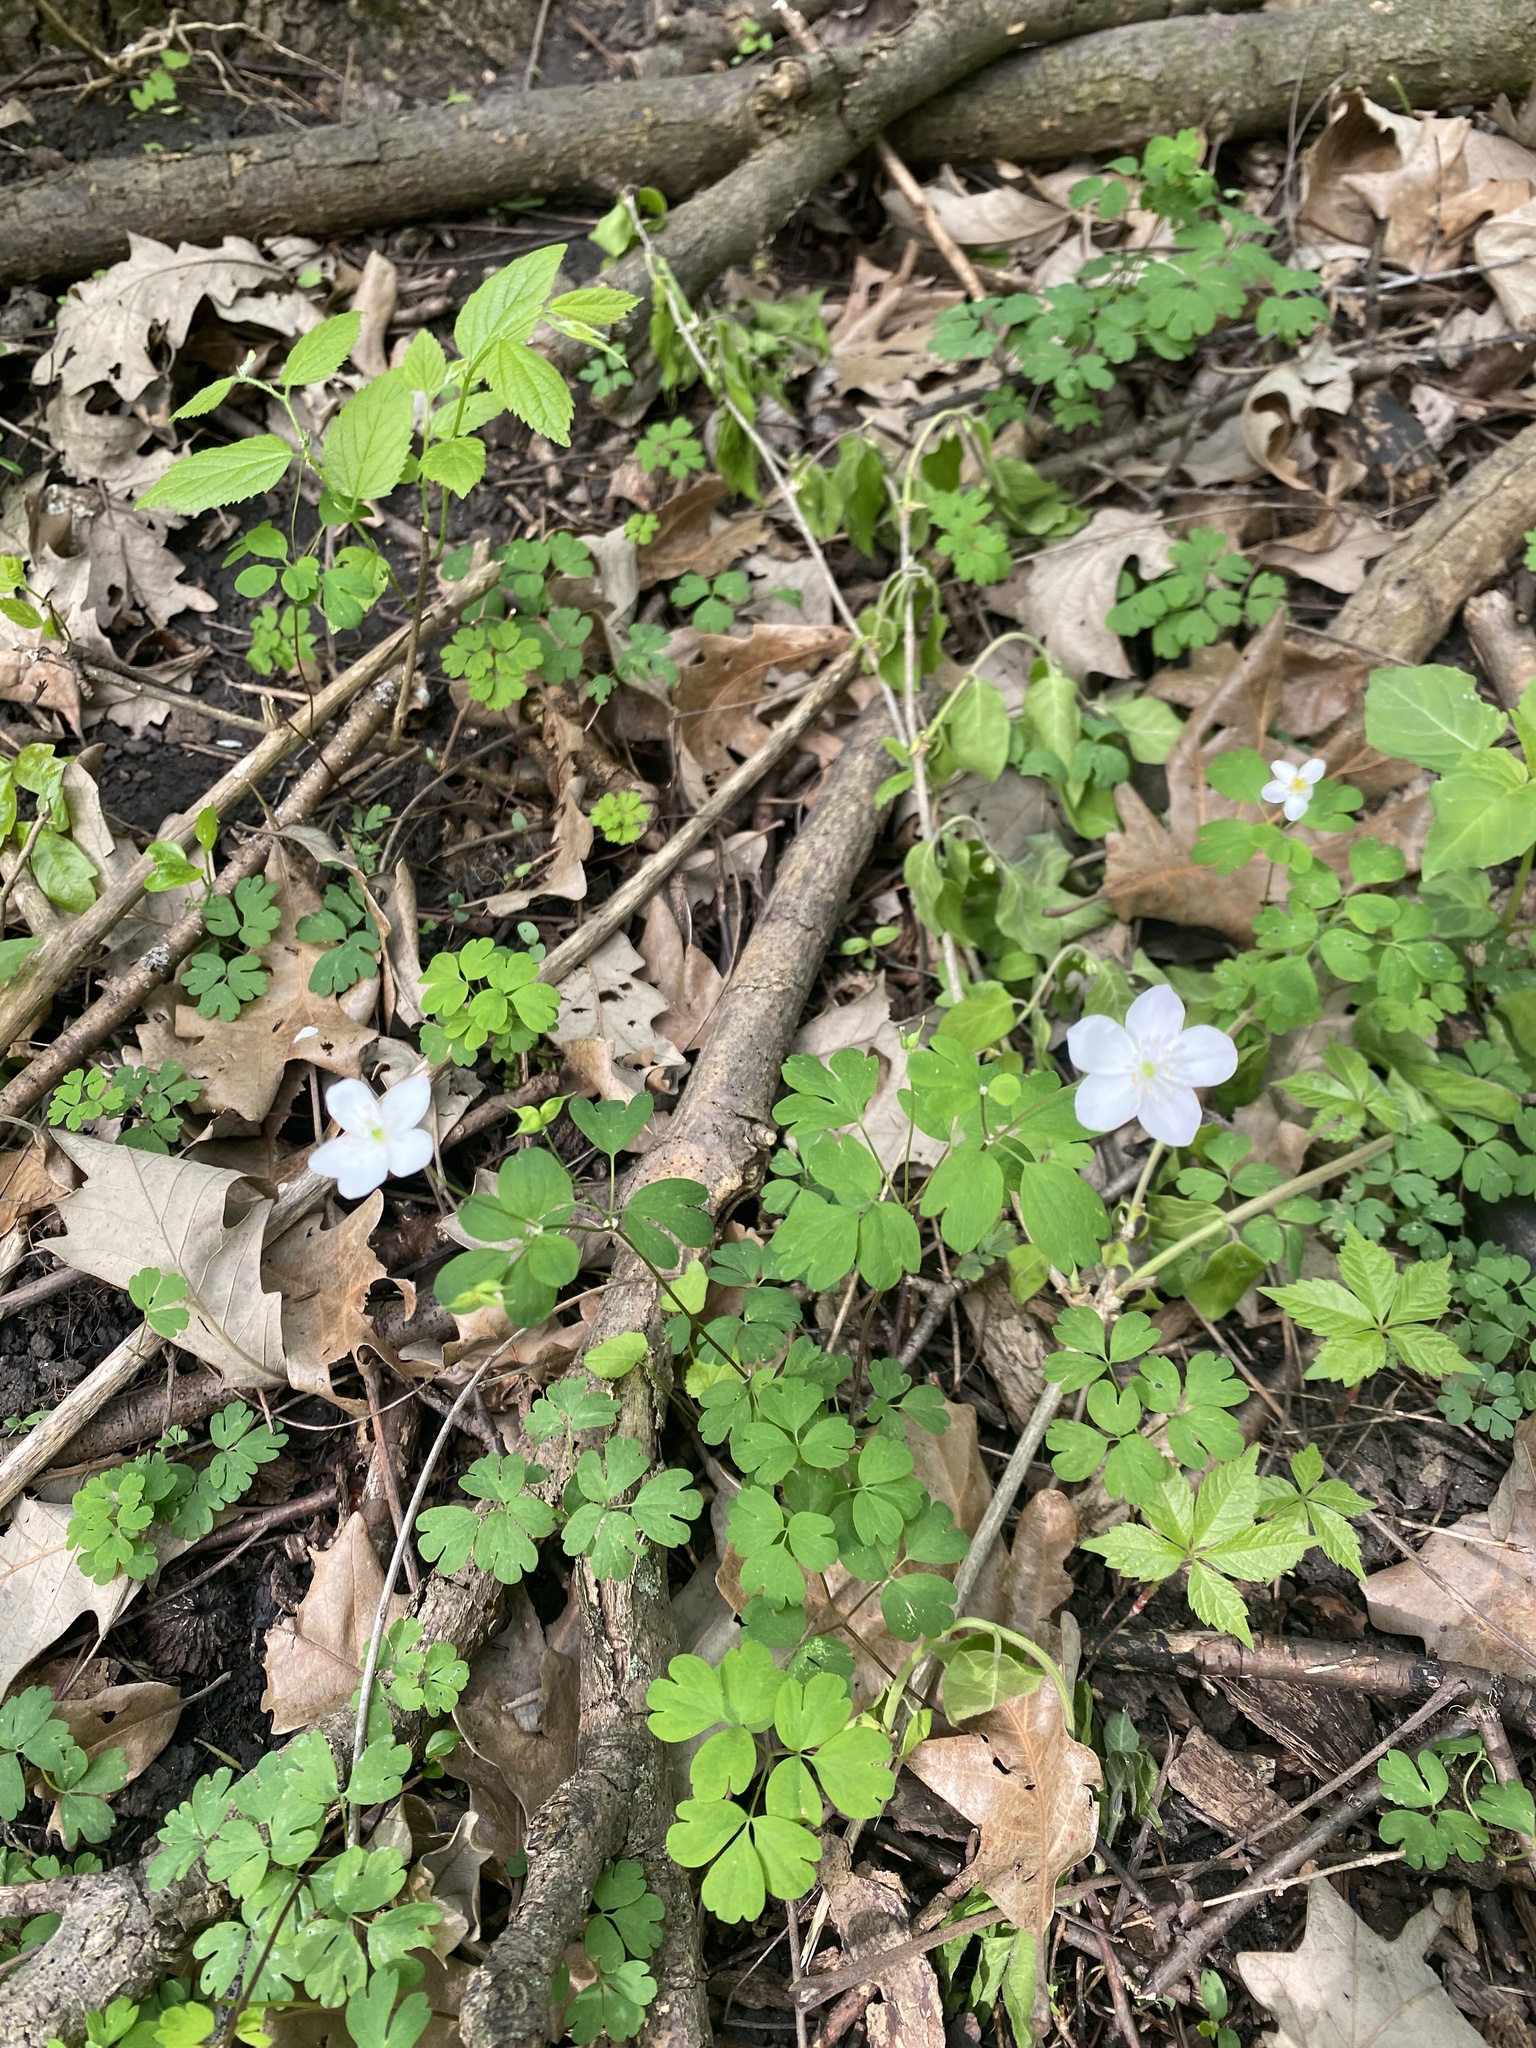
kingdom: Plantae
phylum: Tracheophyta
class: Magnoliopsida
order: Ranunculales
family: Ranunculaceae
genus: Enemion
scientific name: Enemion biternatum
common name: Eastern false rue-anemone
